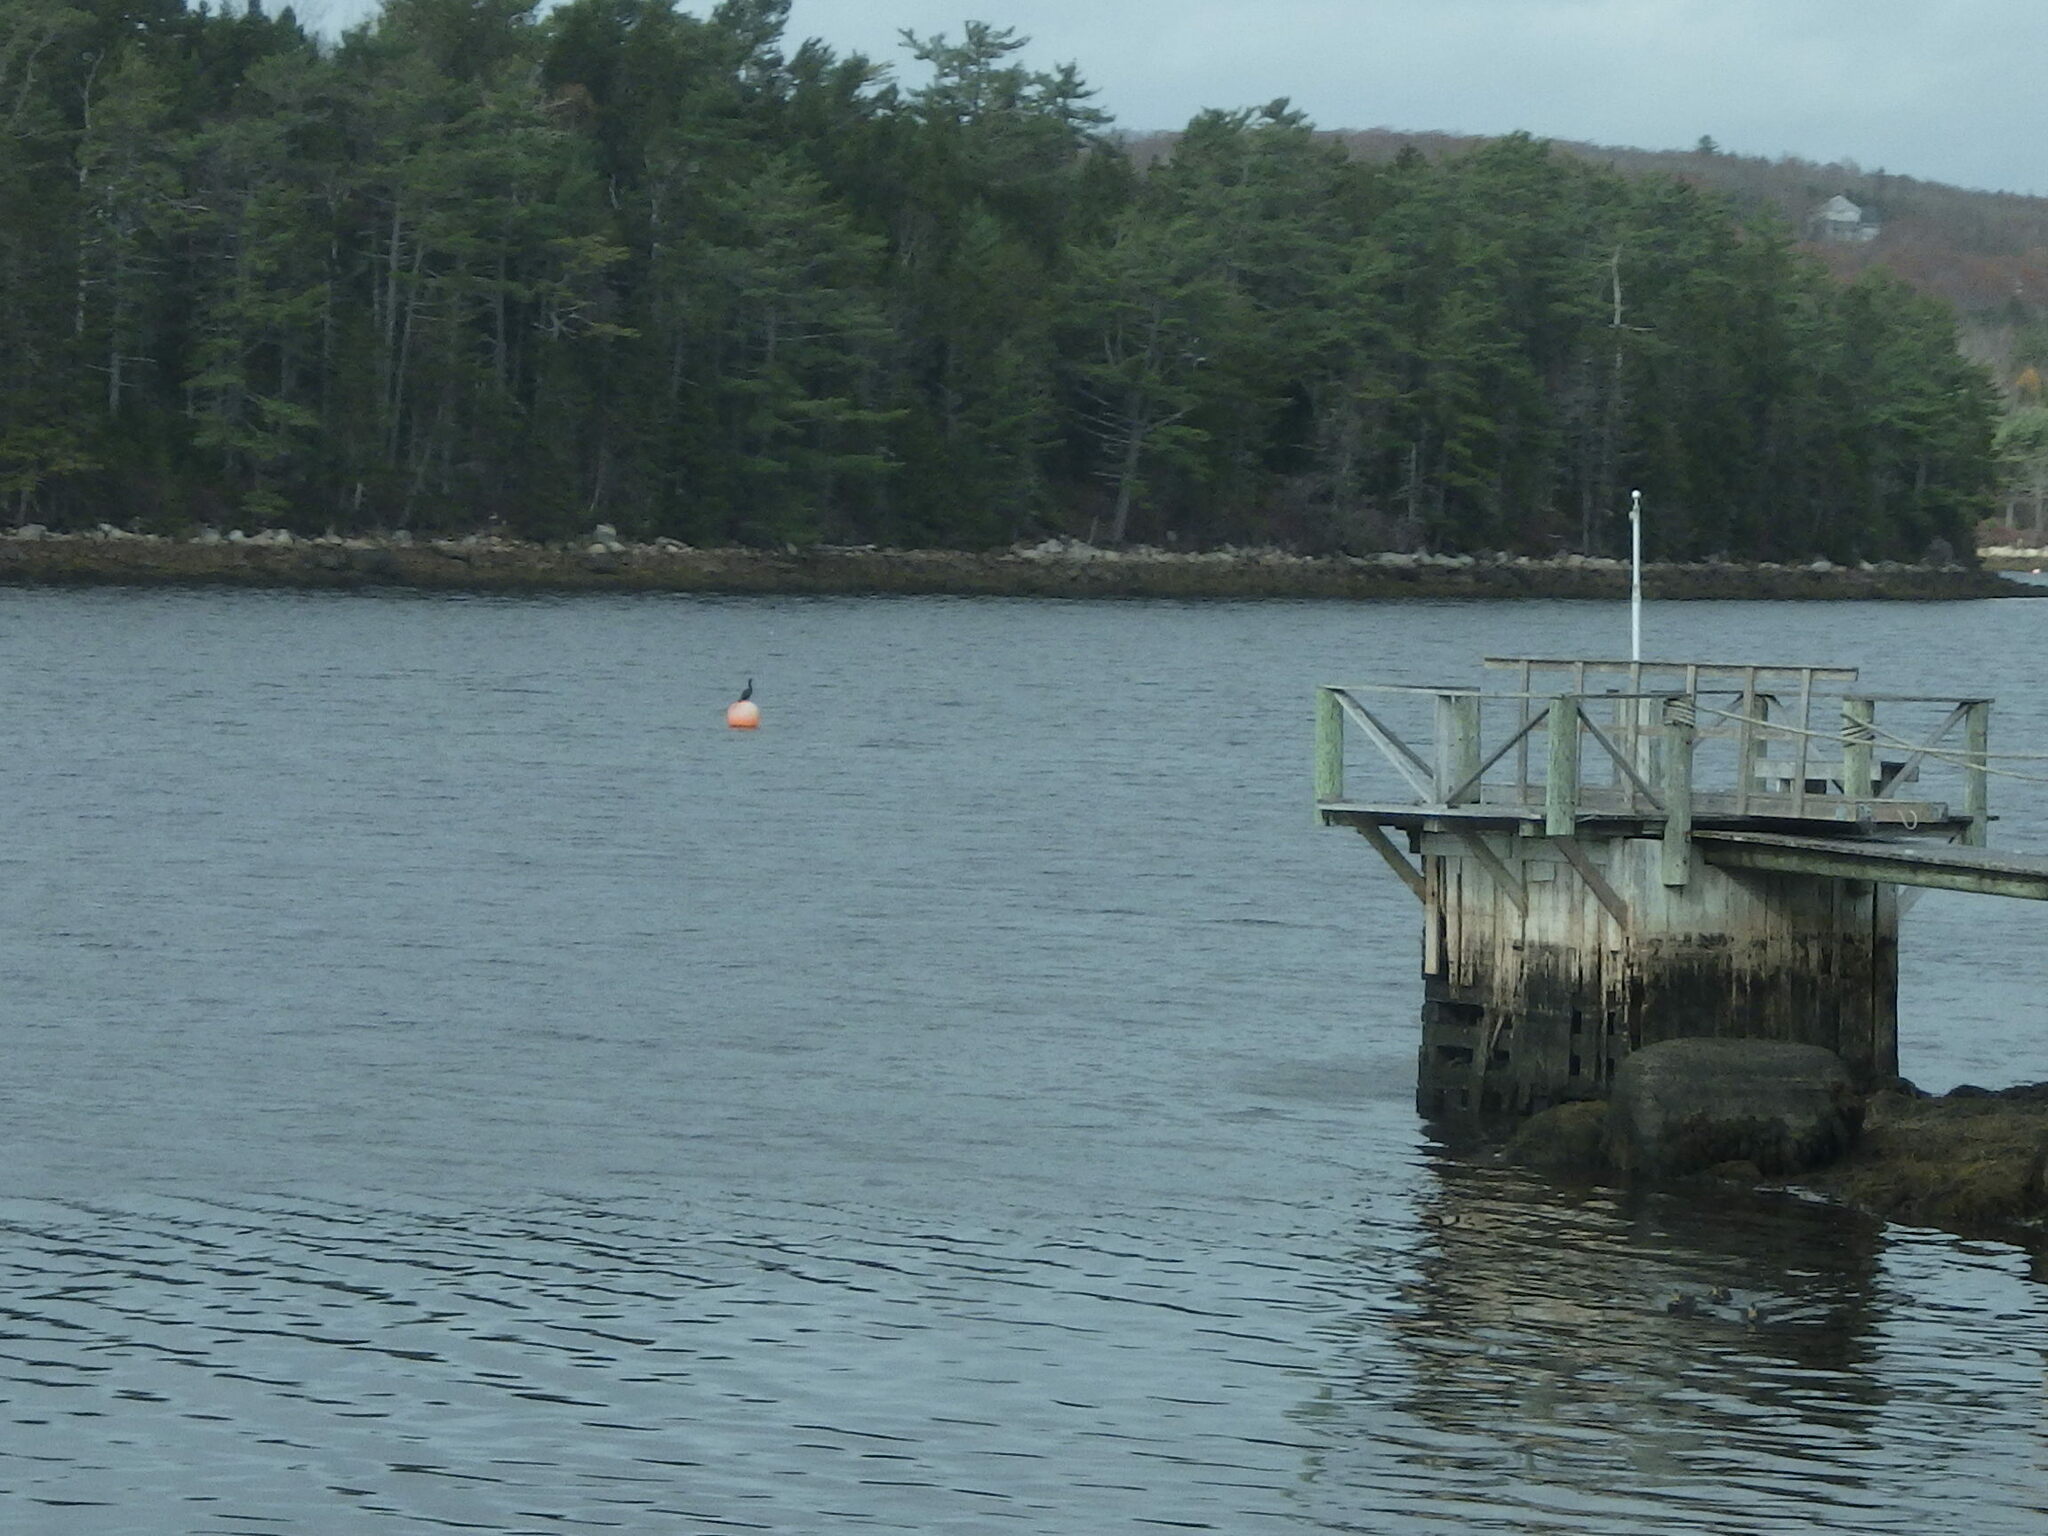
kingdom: Animalia
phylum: Chordata
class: Aves
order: Suliformes
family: Phalacrocoracidae
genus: Phalacrocorax
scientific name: Phalacrocorax auritus
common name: Double-crested cormorant
